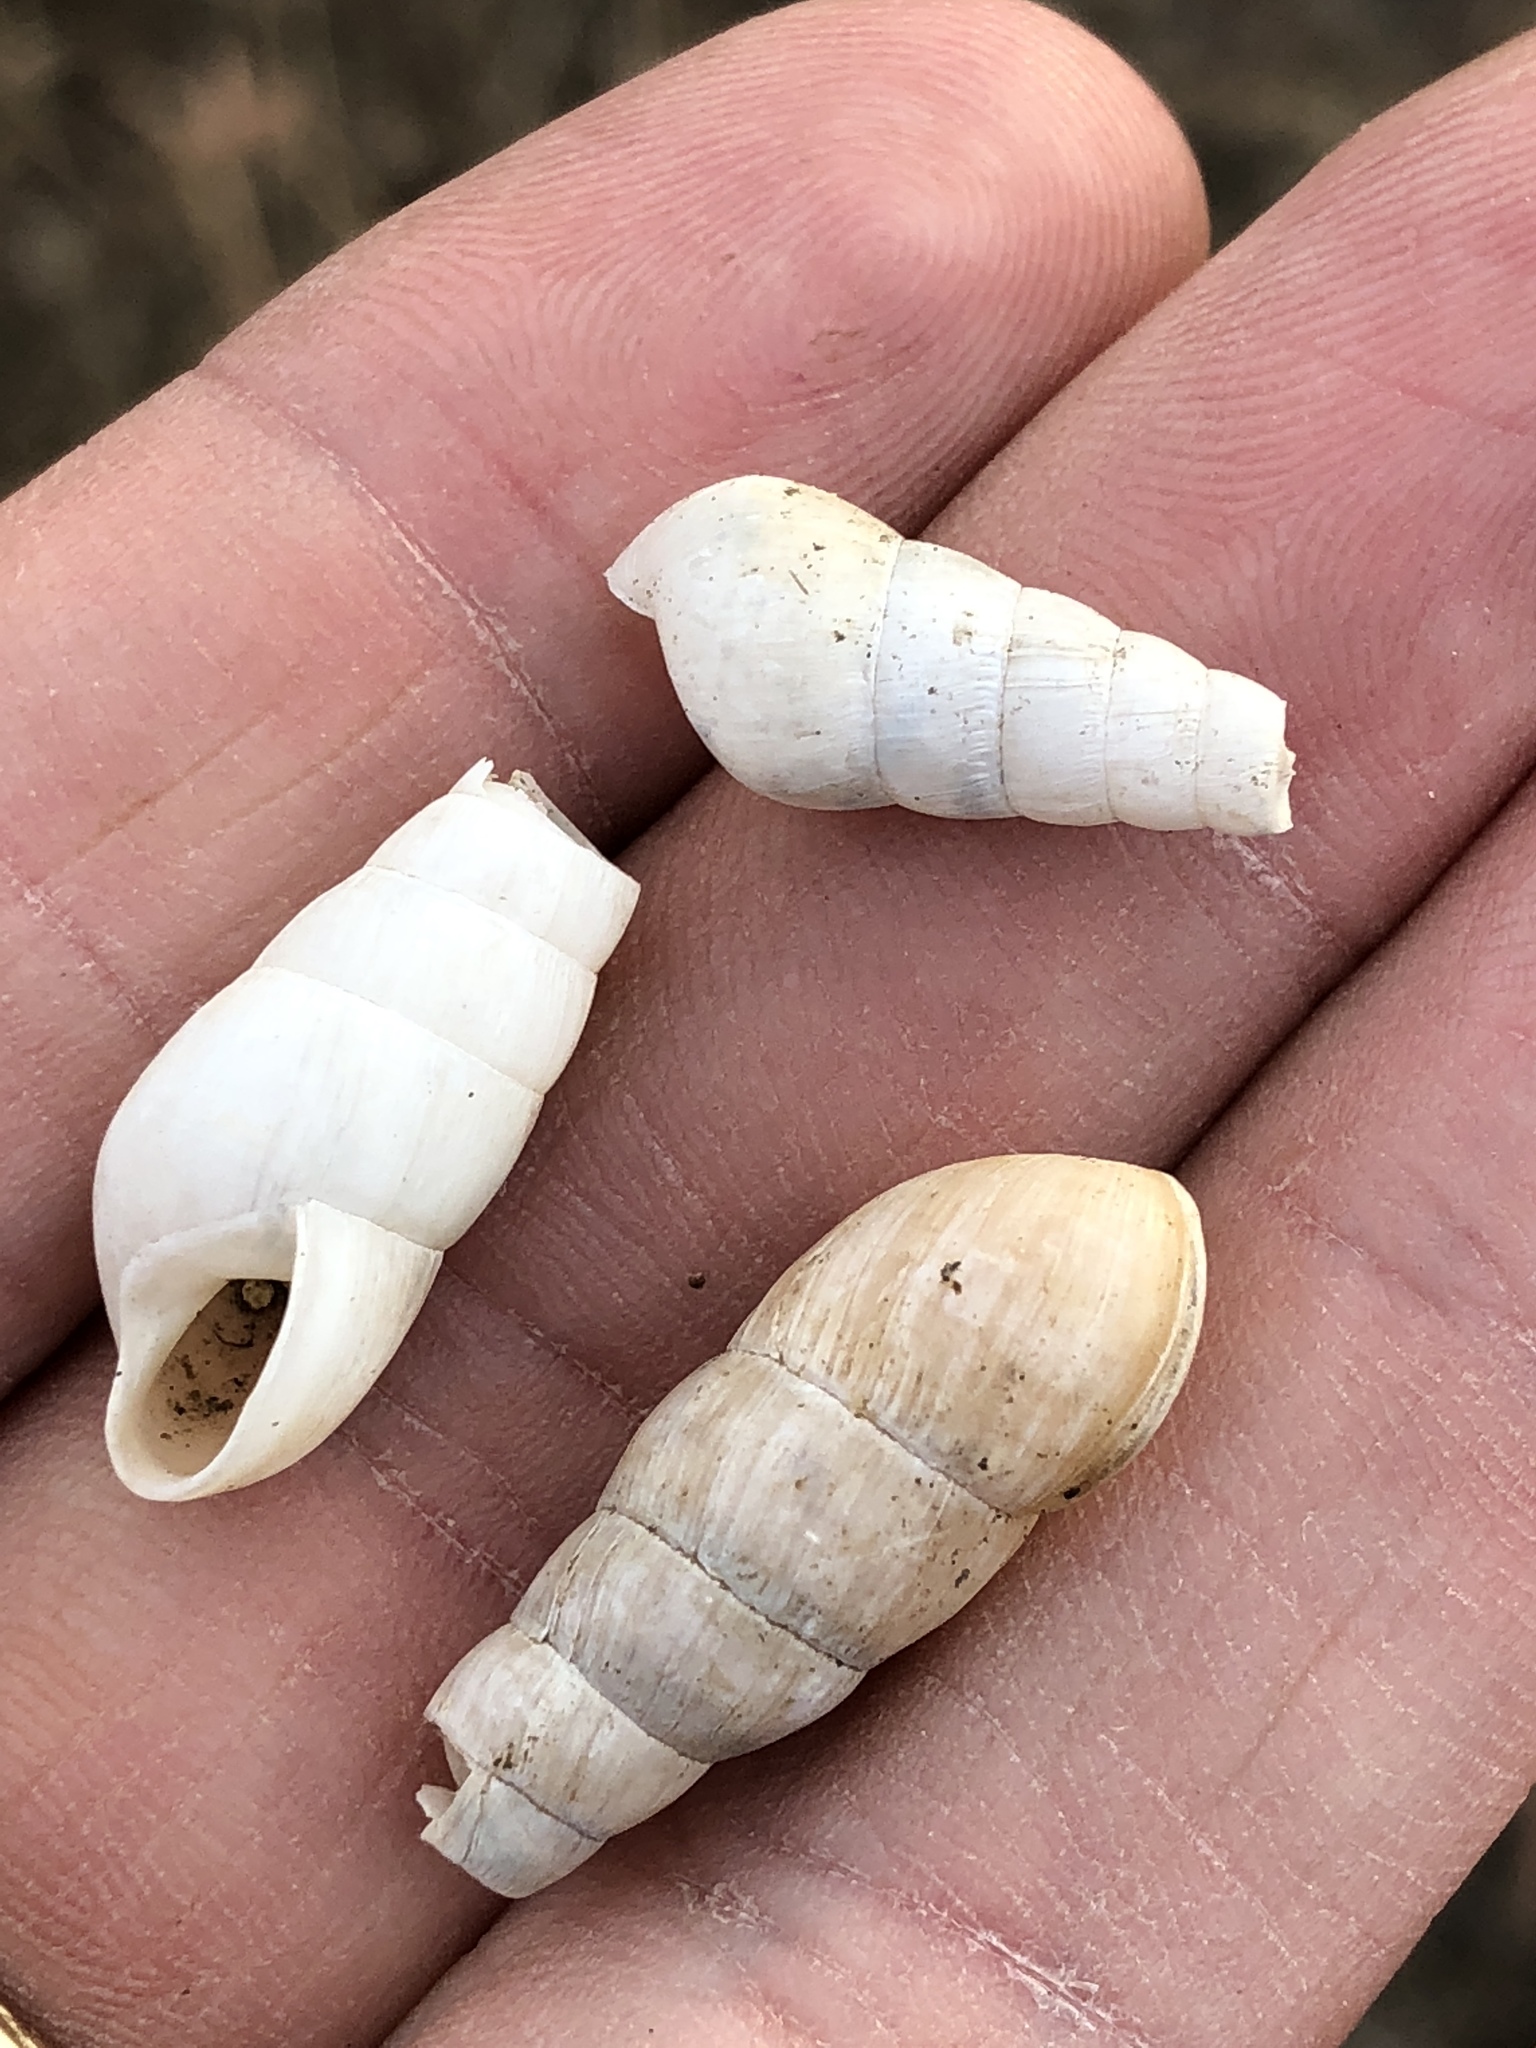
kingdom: Animalia
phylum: Mollusca
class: Gastropoda
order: Stylommatophora
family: Achatinidae
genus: Rumina
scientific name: Rumina decollata
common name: Decollate snail
